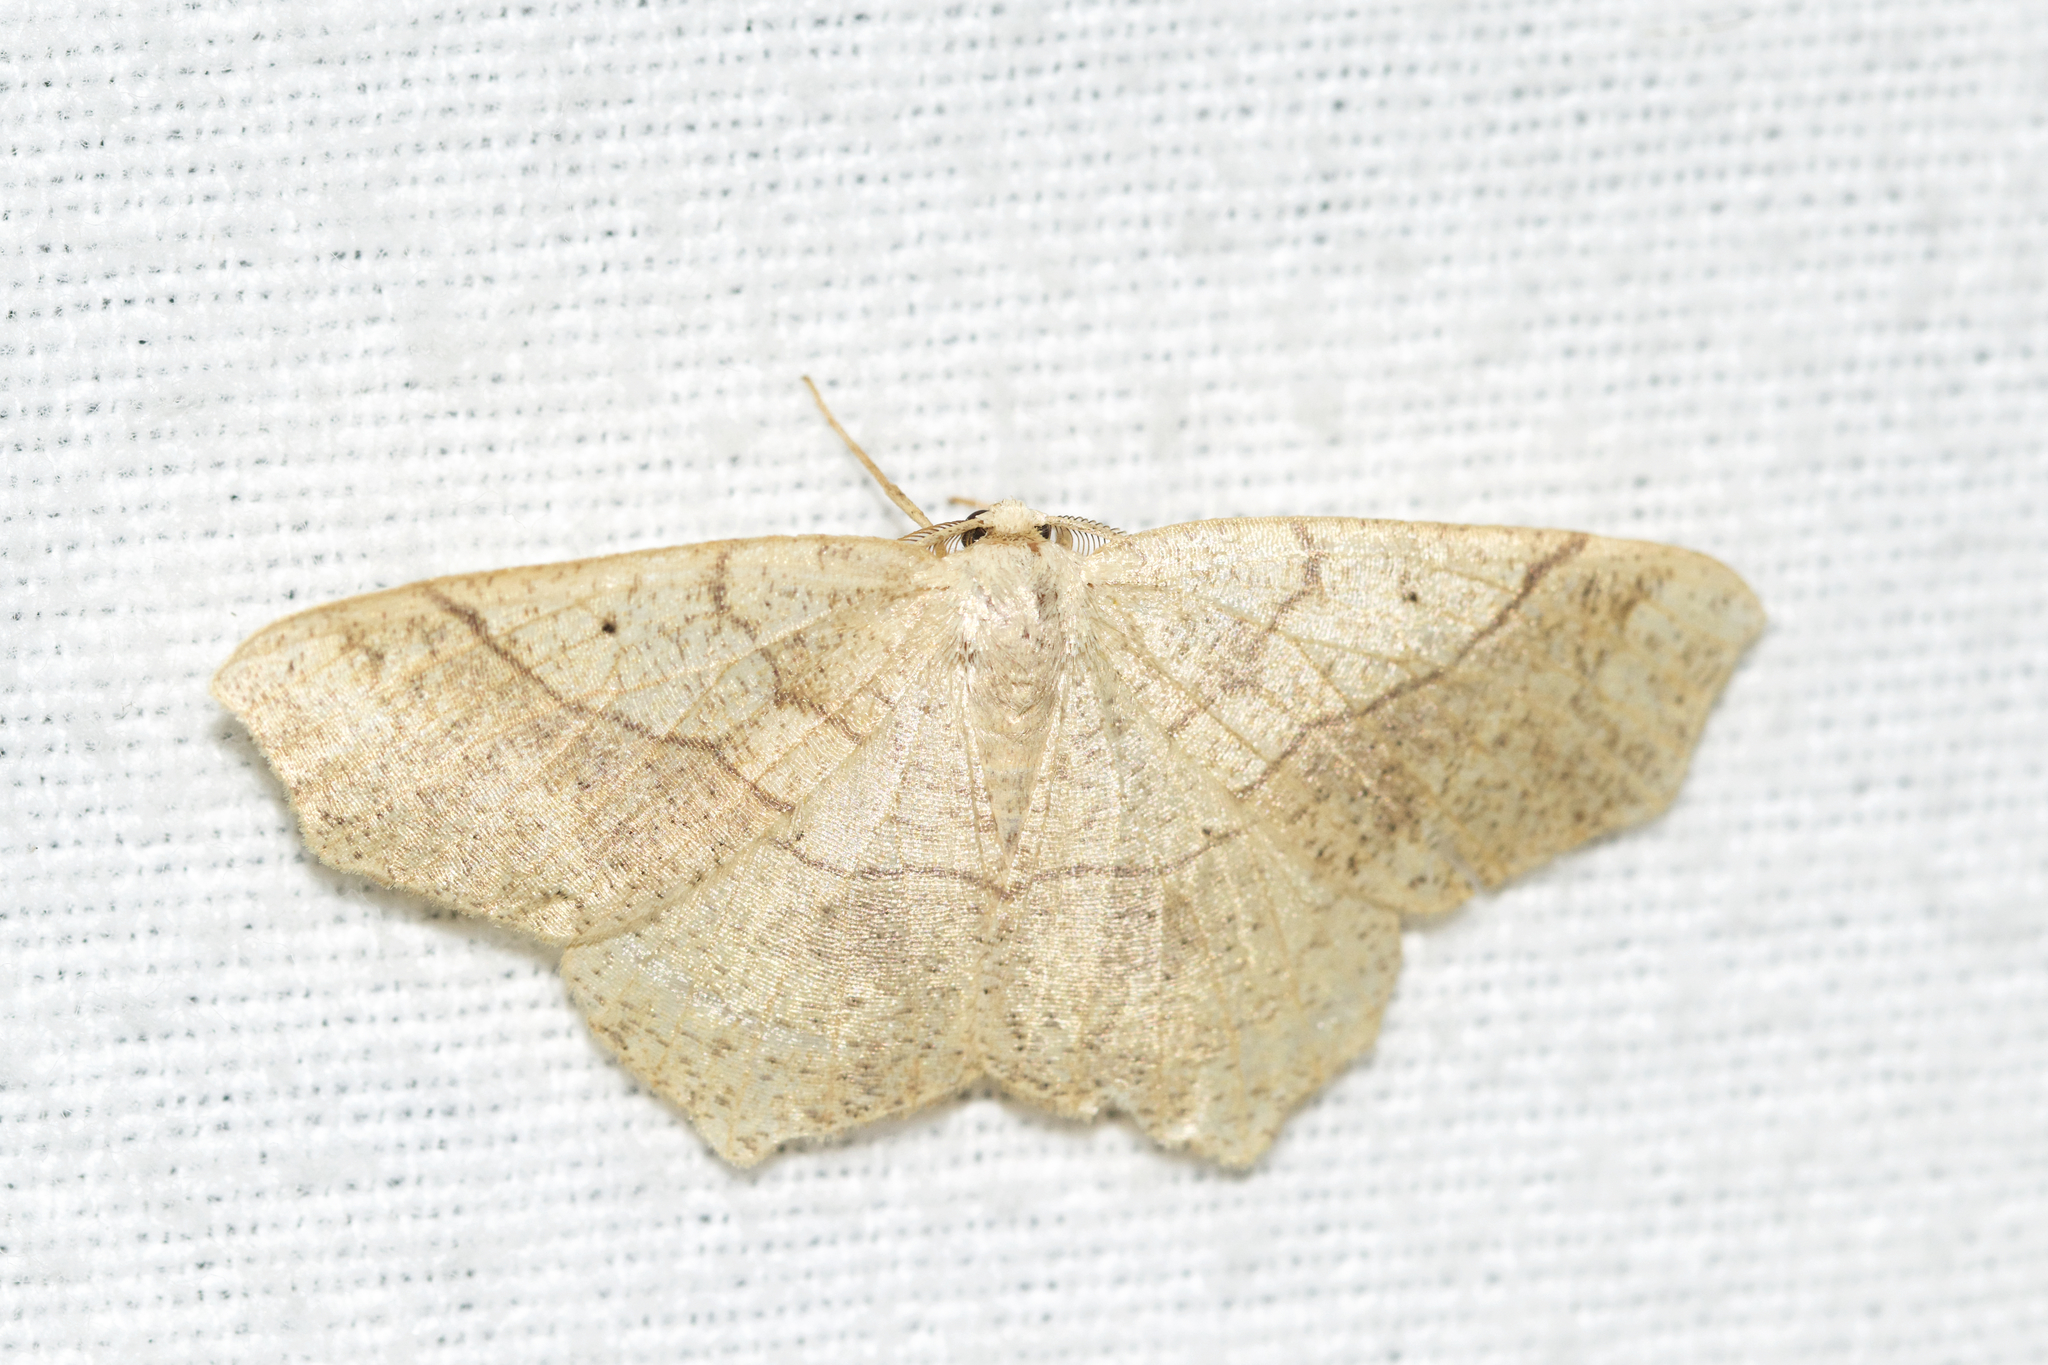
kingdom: Animalia
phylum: Arthropoda
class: Insecta
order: Lepidoptera
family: Geometridae
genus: Besma
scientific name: Besma quercivoraria
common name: Oak besma
